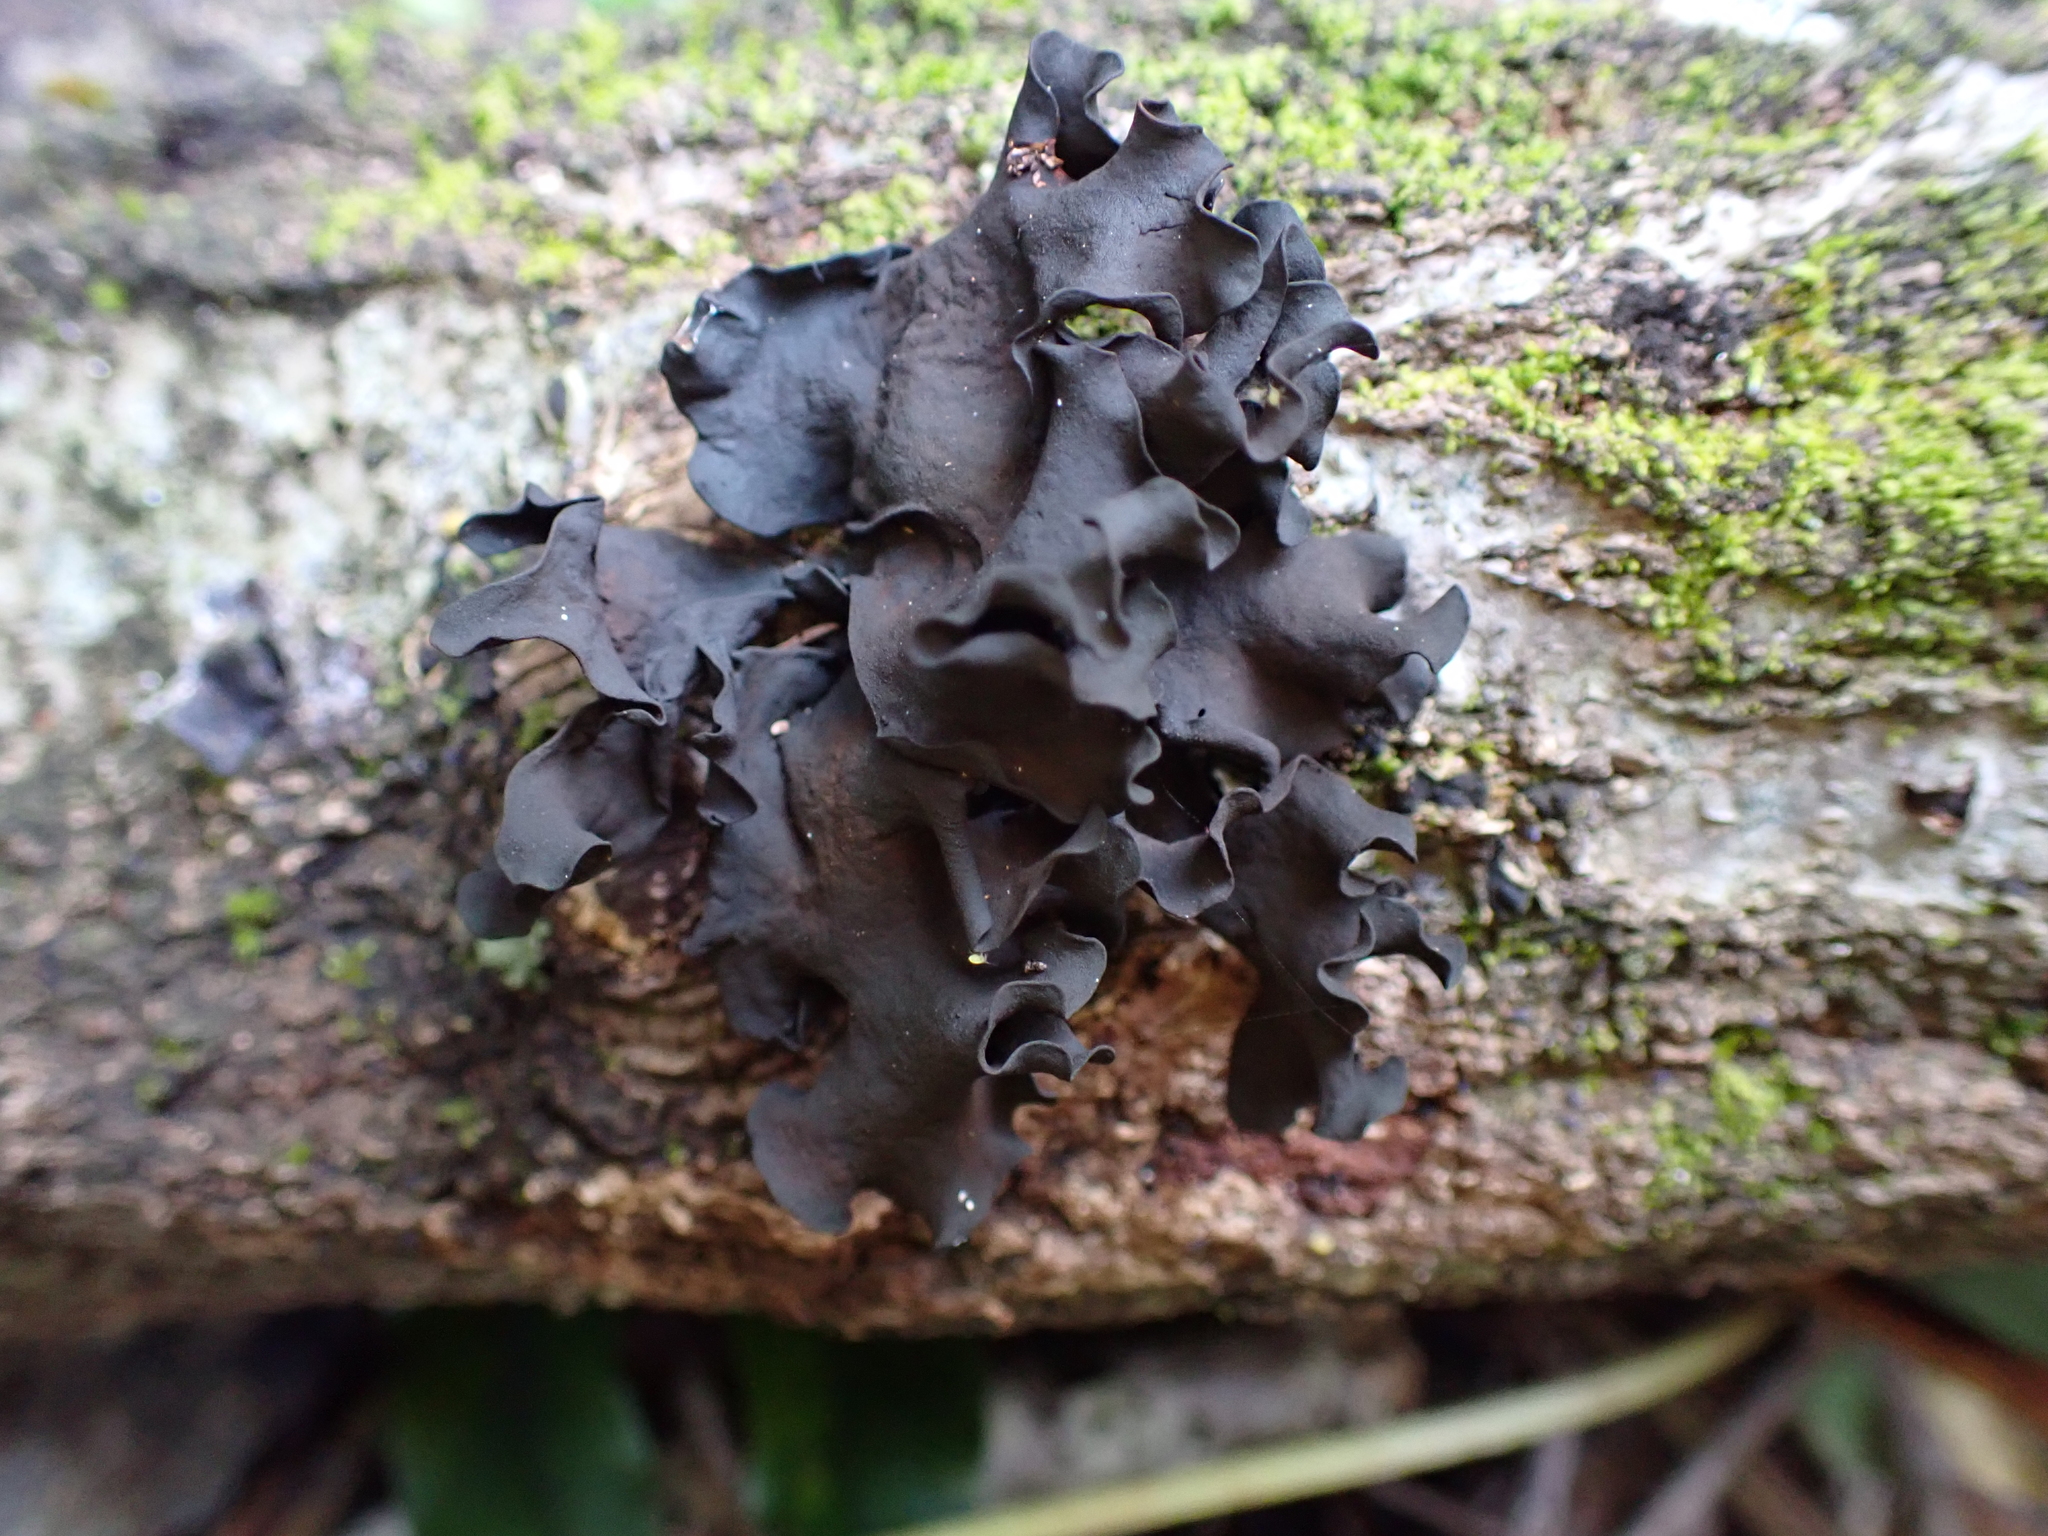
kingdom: Fungi
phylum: Basidiomycota
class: Tremellomycetes
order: Tremellales
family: Tremellaceae
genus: Phaeotremella
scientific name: Phaeotremella eugeniae
